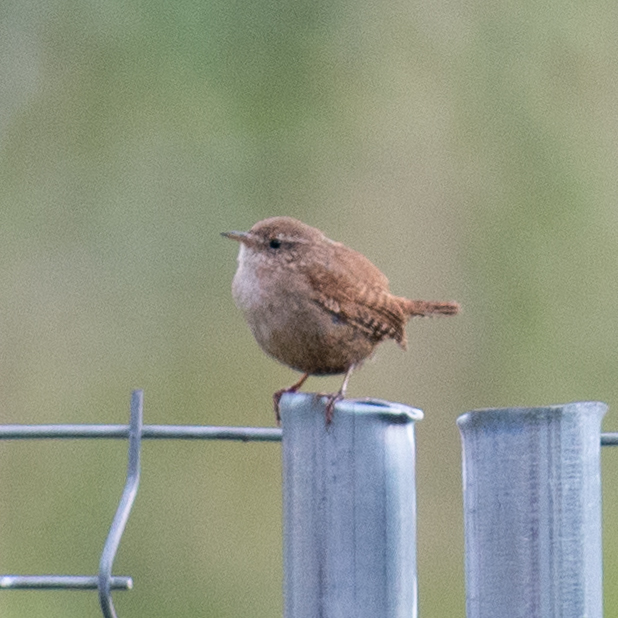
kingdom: Animalia
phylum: Chordata
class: Aves
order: Passeriformes
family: Troglodytidae
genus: Troglodytes
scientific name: Troglodytes troglodytes
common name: Eurasian wren
